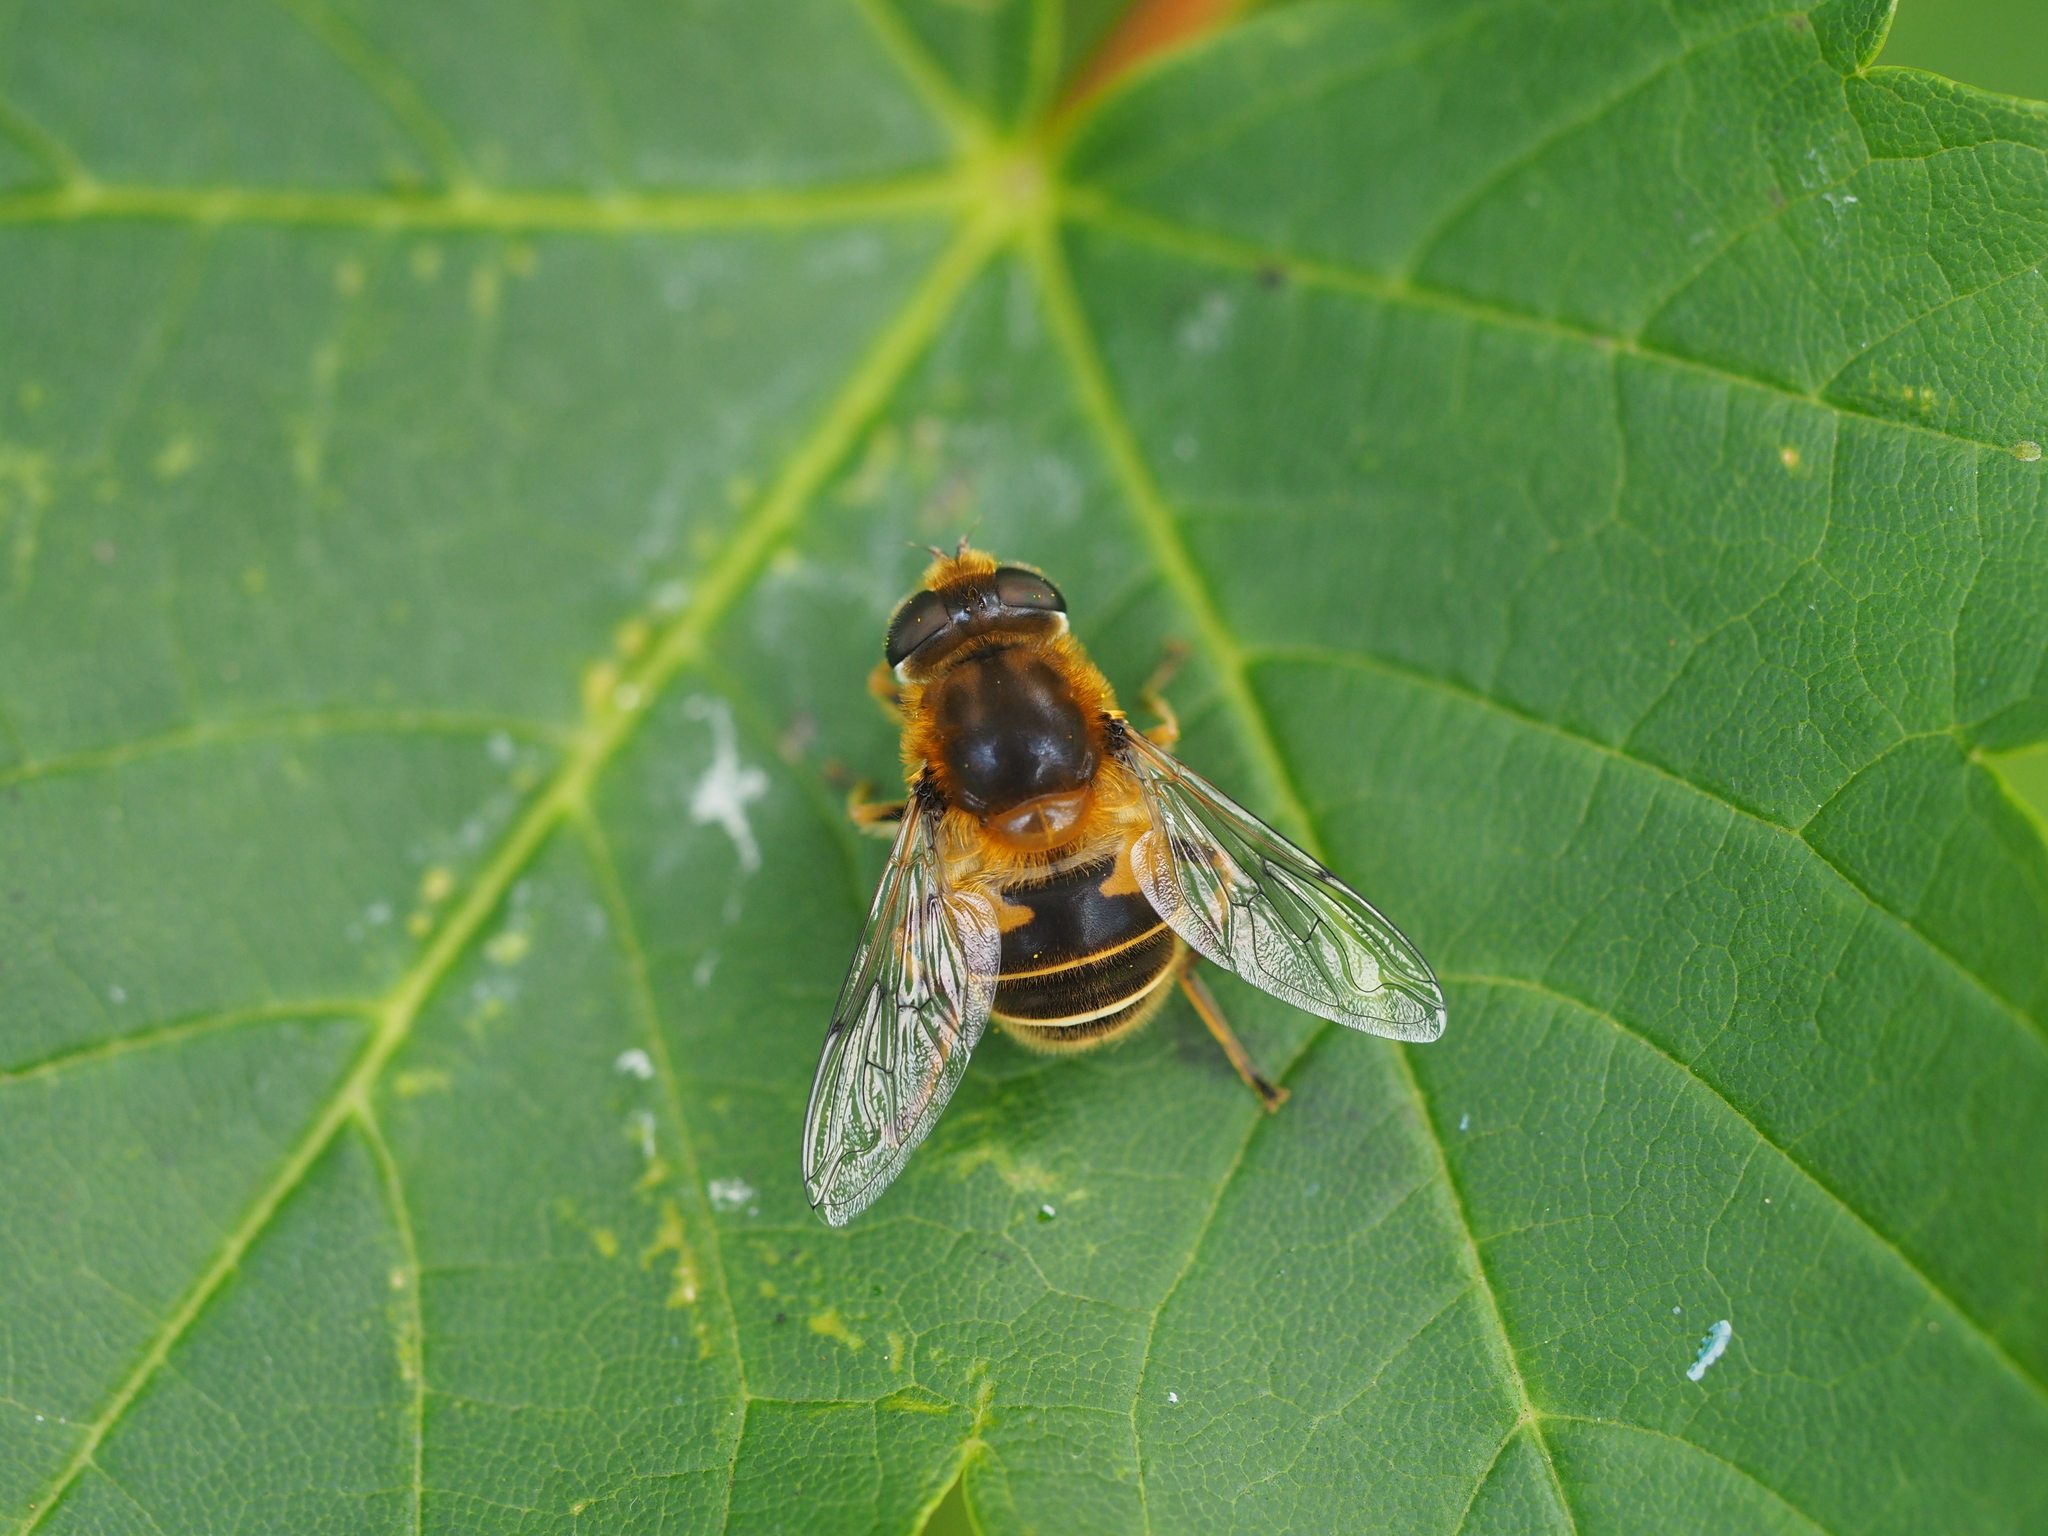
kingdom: Animalia
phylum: Arthropoda
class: Insecta
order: Diptera
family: Syrphidae
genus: Eristalis
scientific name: Eristalis jugorum
